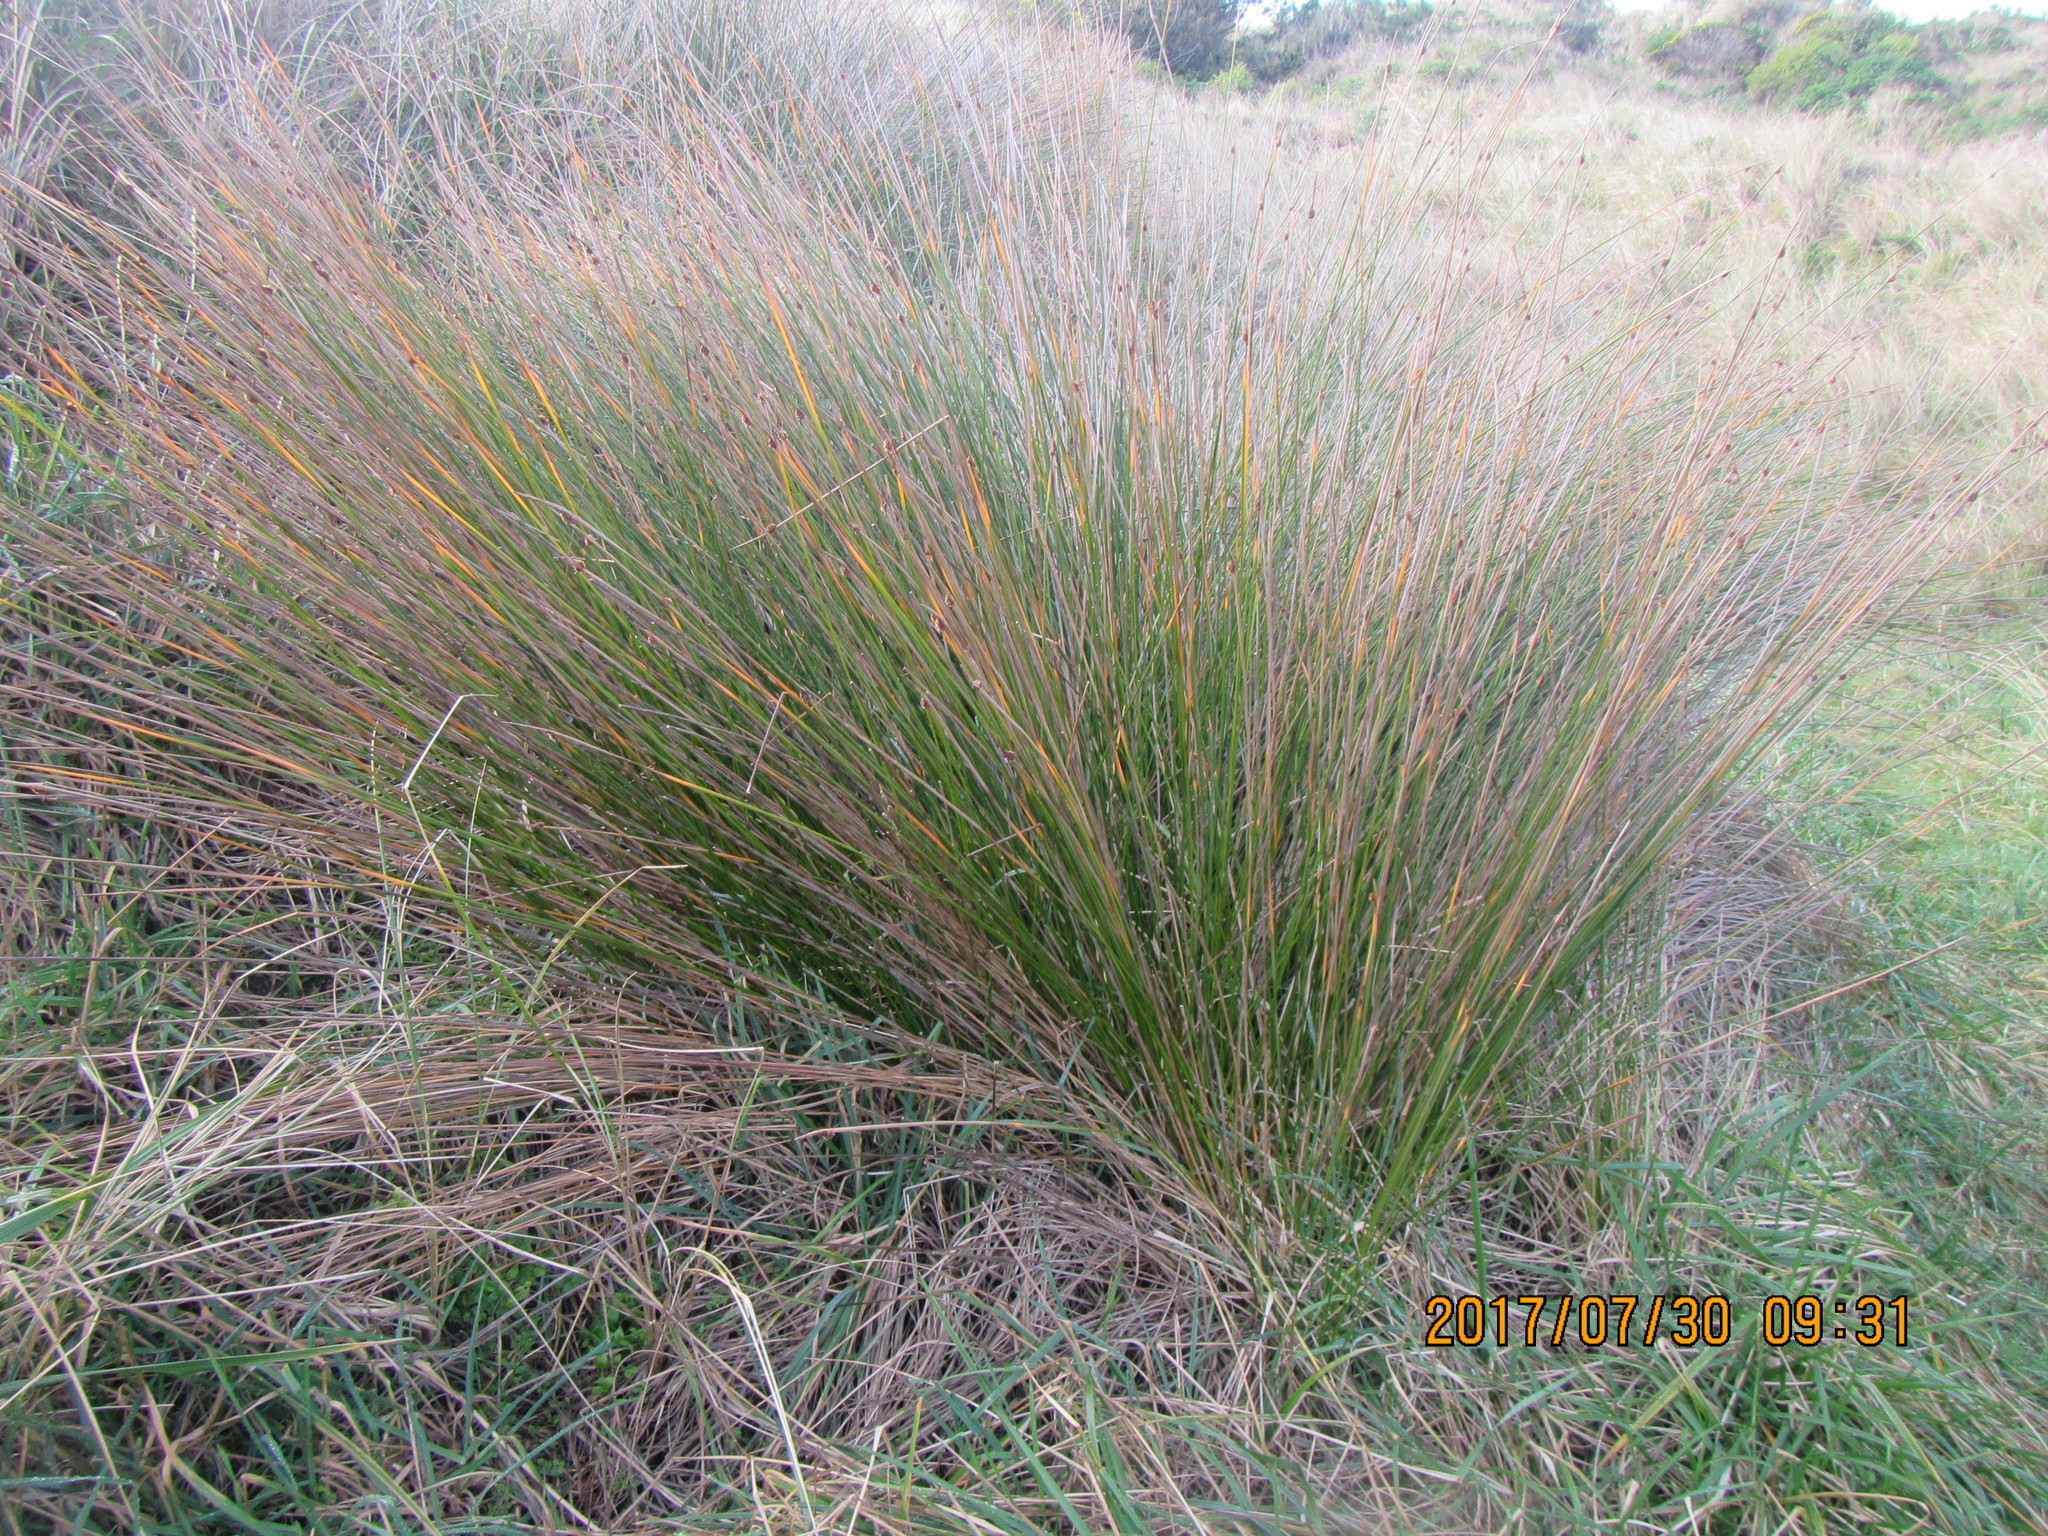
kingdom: Plantae
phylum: Tracheophyta
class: Liliopsida
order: Poales
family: Cyperaceae
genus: Ficinia
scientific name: Ficinia nodosa
